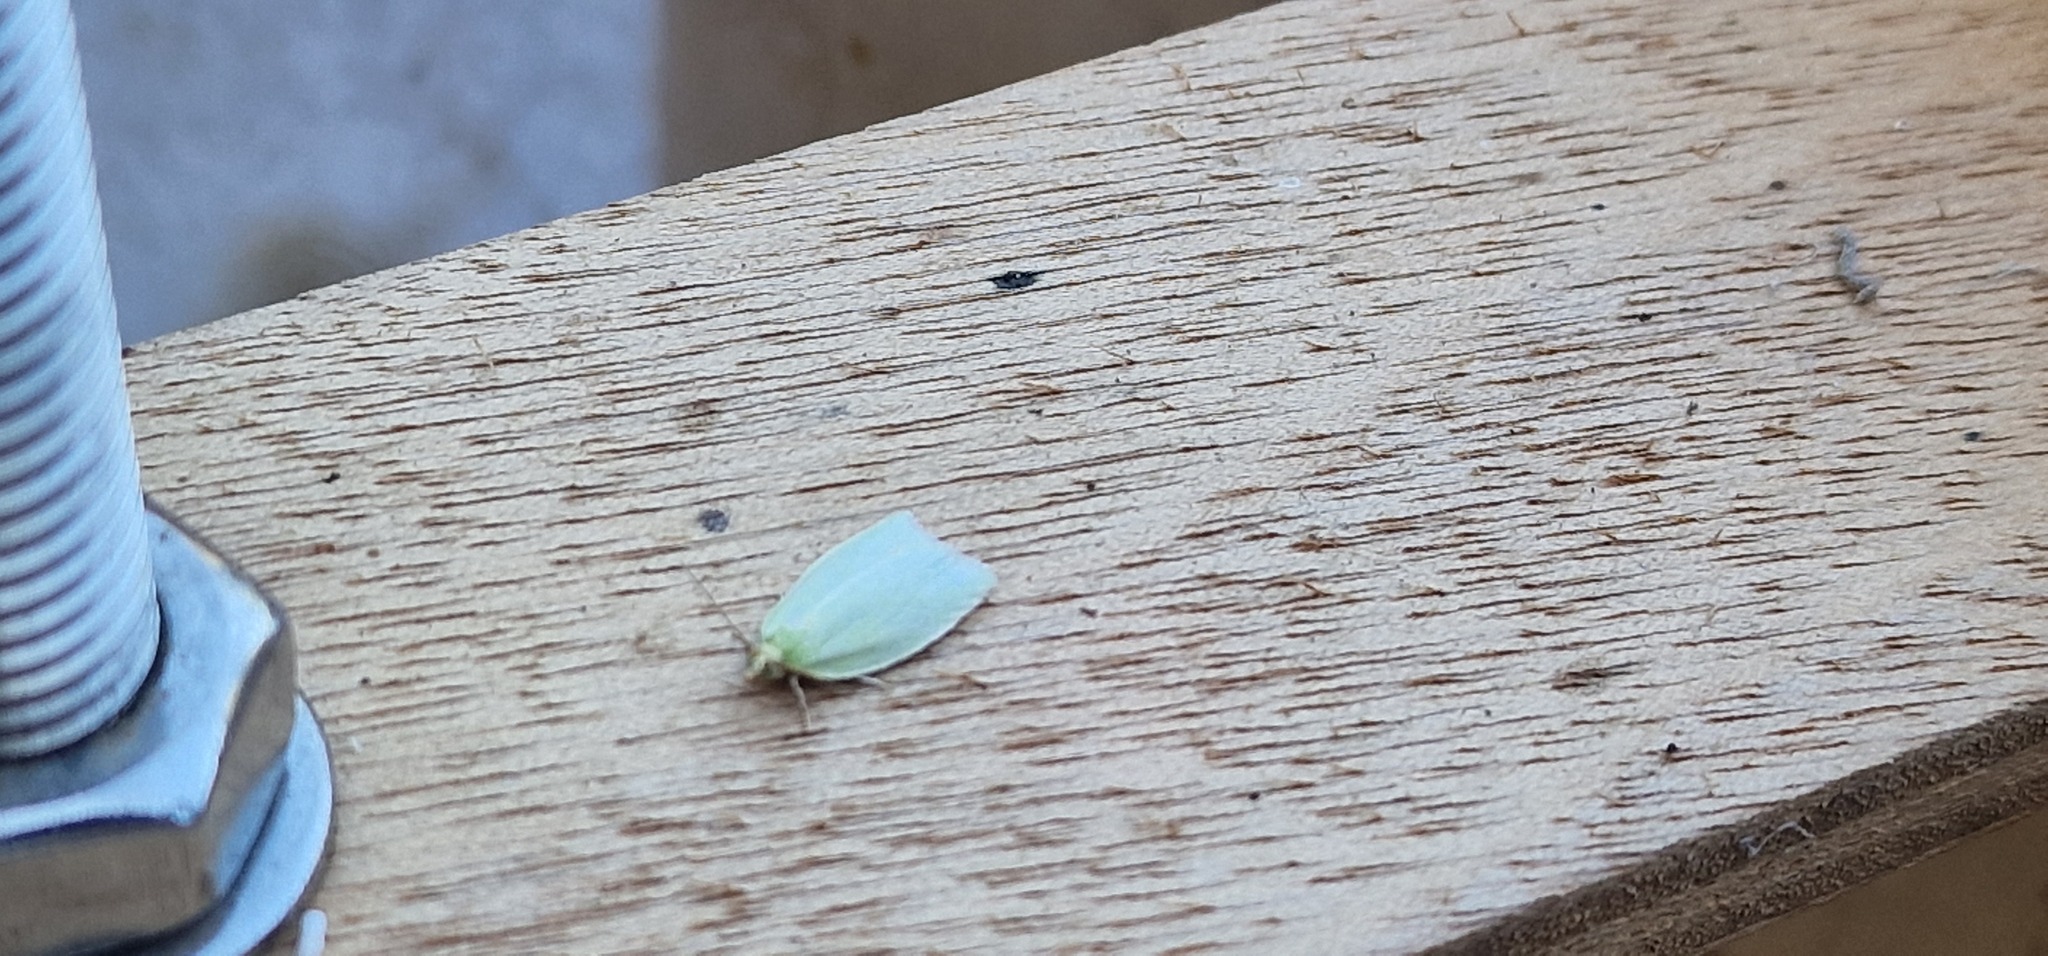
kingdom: Animalia
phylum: Arthropoda
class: Insecta
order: Lepidoptera
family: Tortricidae
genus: Tortrix
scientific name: Tortrix viridana
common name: Green oak tortrix
